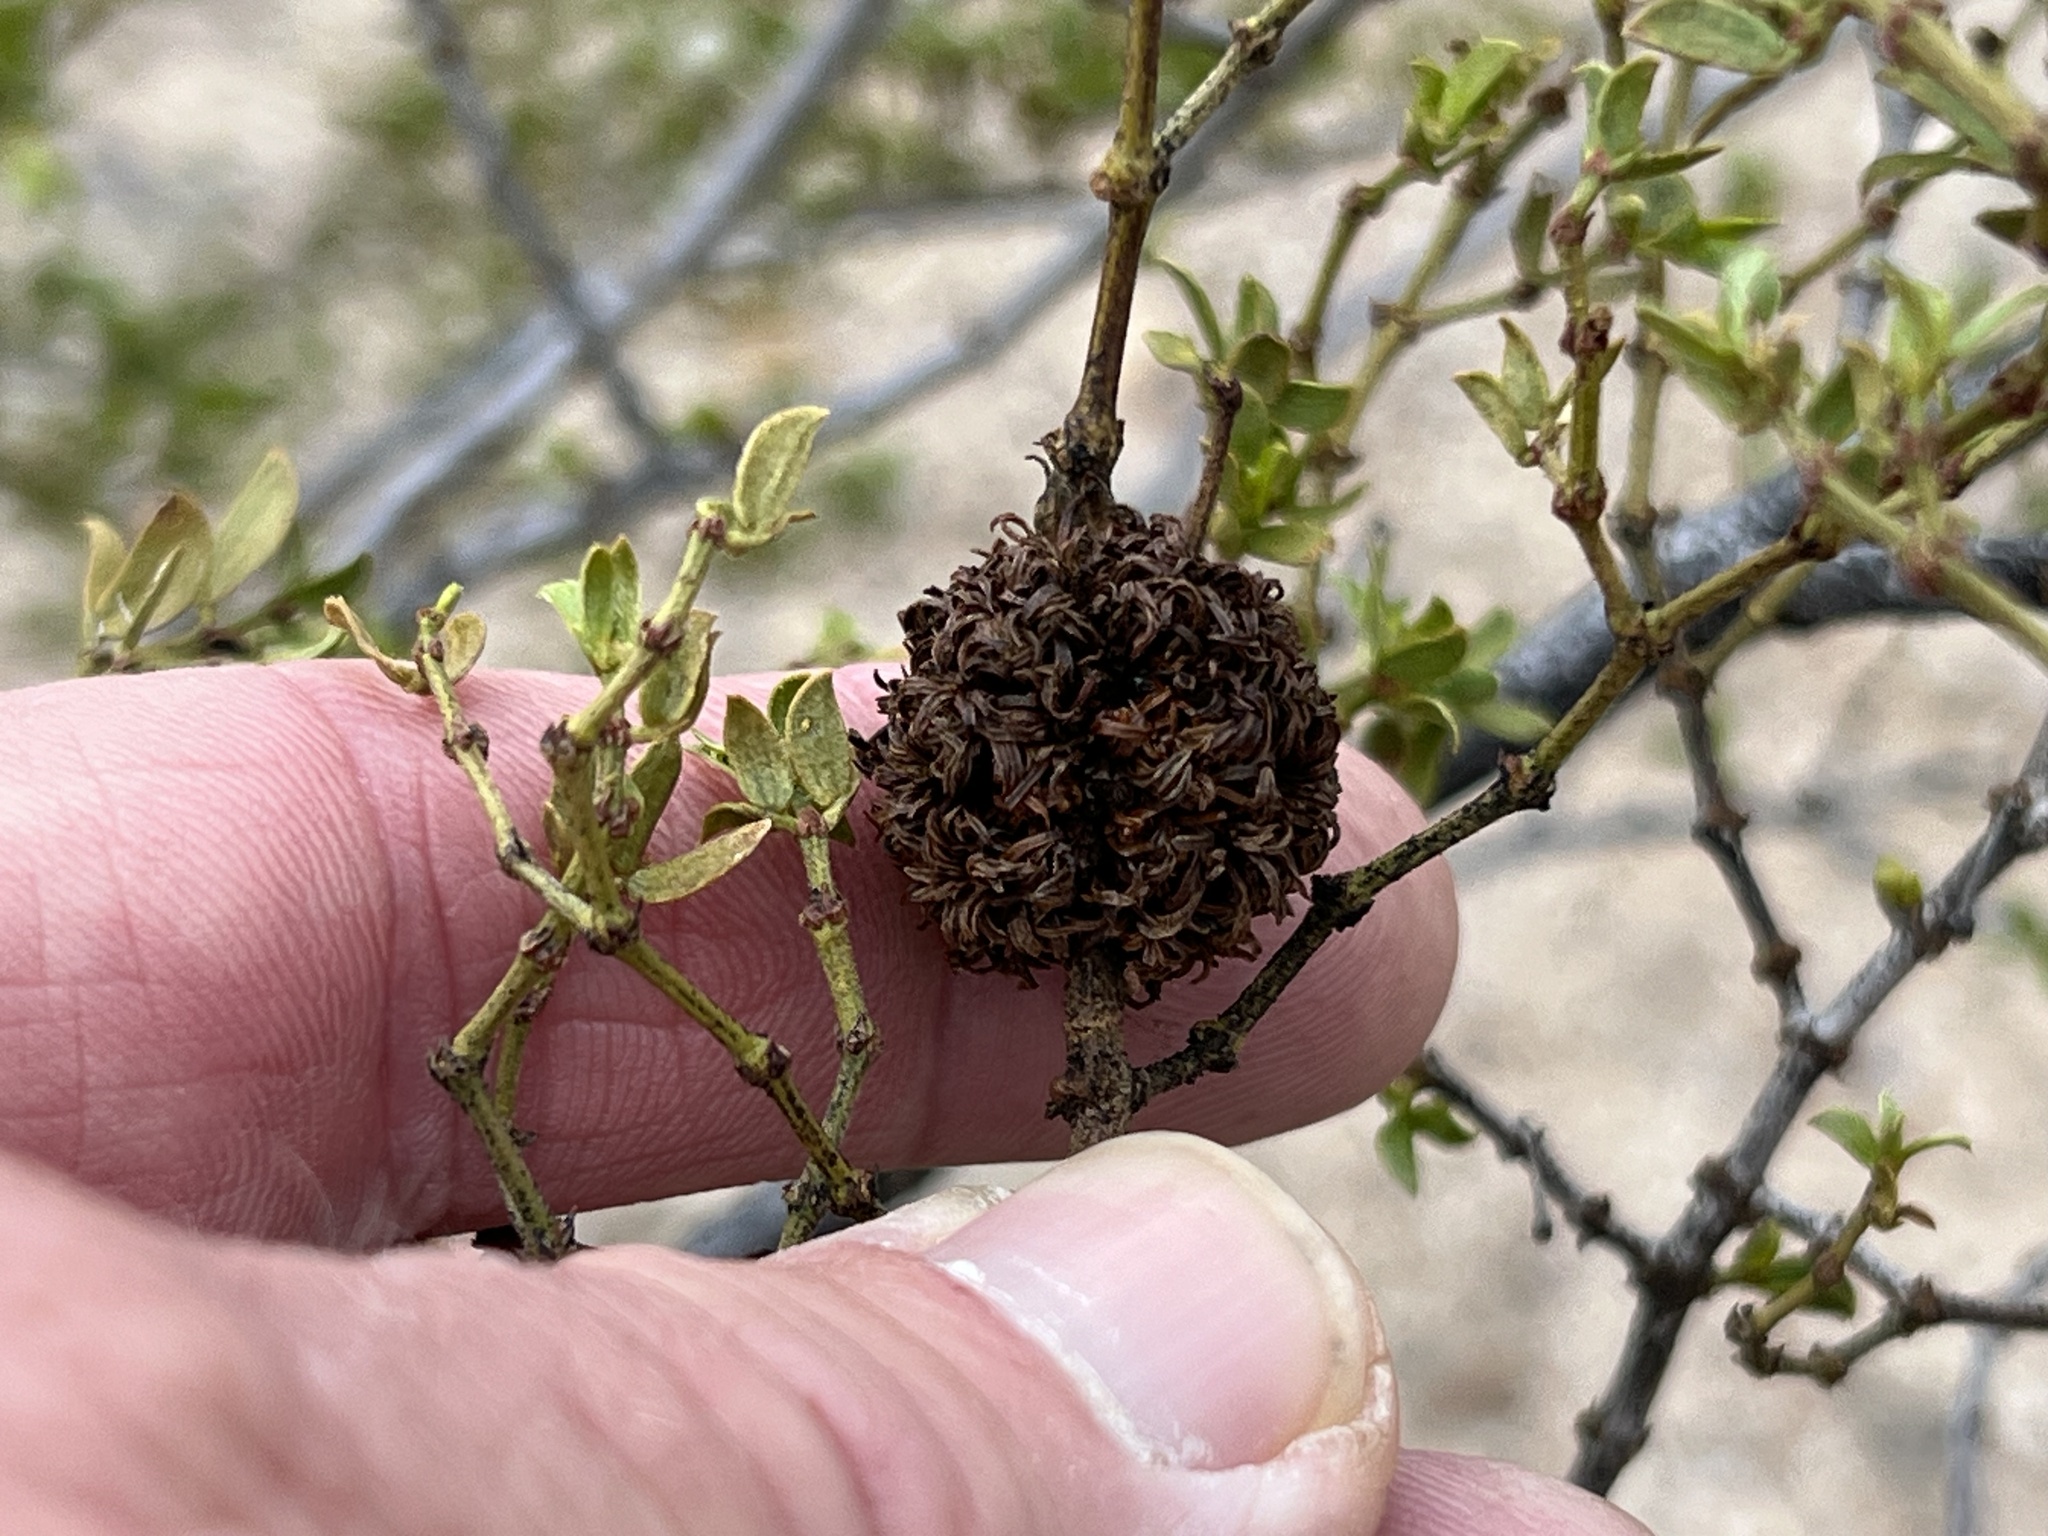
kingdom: Animalia
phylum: Arthropoda
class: Insecta
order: Diptera
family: Cecidomyiidae
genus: Asphondylia
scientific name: Asphondylia auripila
